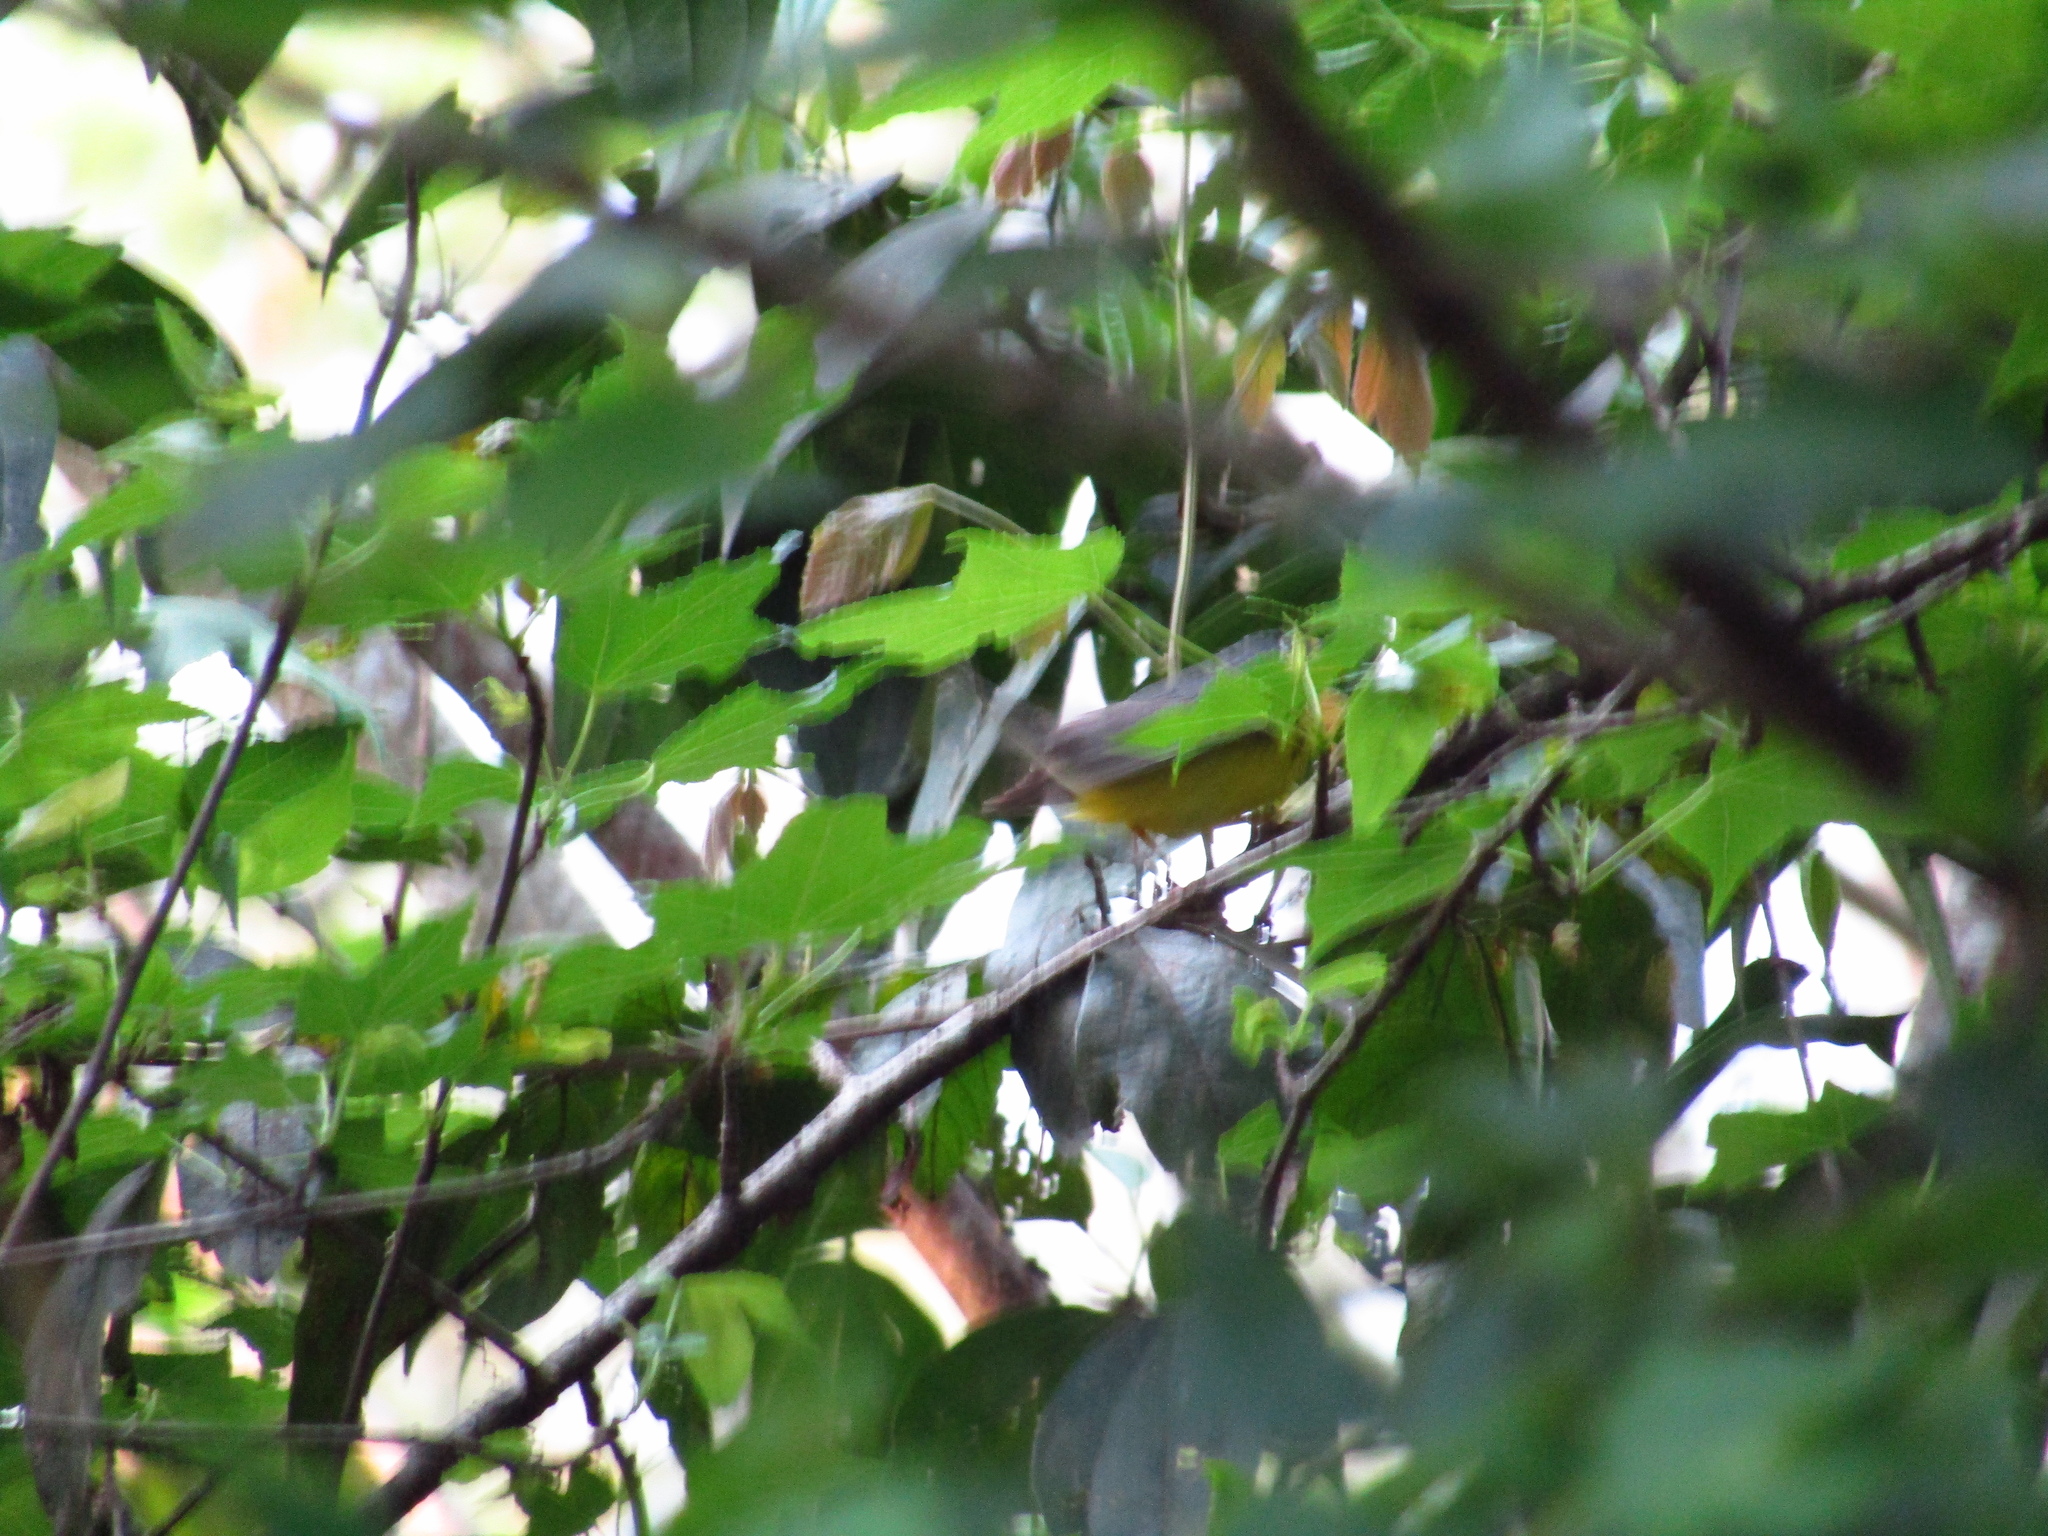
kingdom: Animalia
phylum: Chordata
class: Aves
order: Passeriformes
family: Parulidae
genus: Cardellina
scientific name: Cardellina canadensis
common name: Canada warbler
